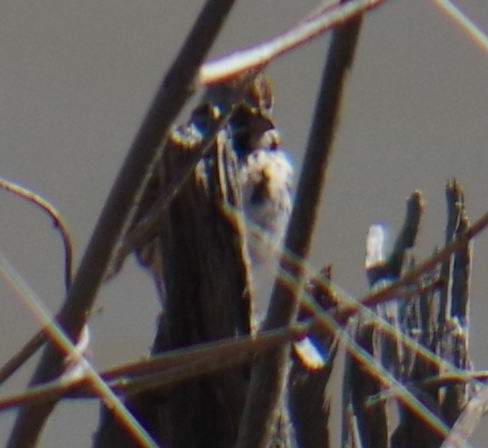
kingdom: Animalia
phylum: Chordata
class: Aves
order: Passeriformes
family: Passerellidae
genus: Melospiza
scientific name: Melospiza melodia
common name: Song sparrow
